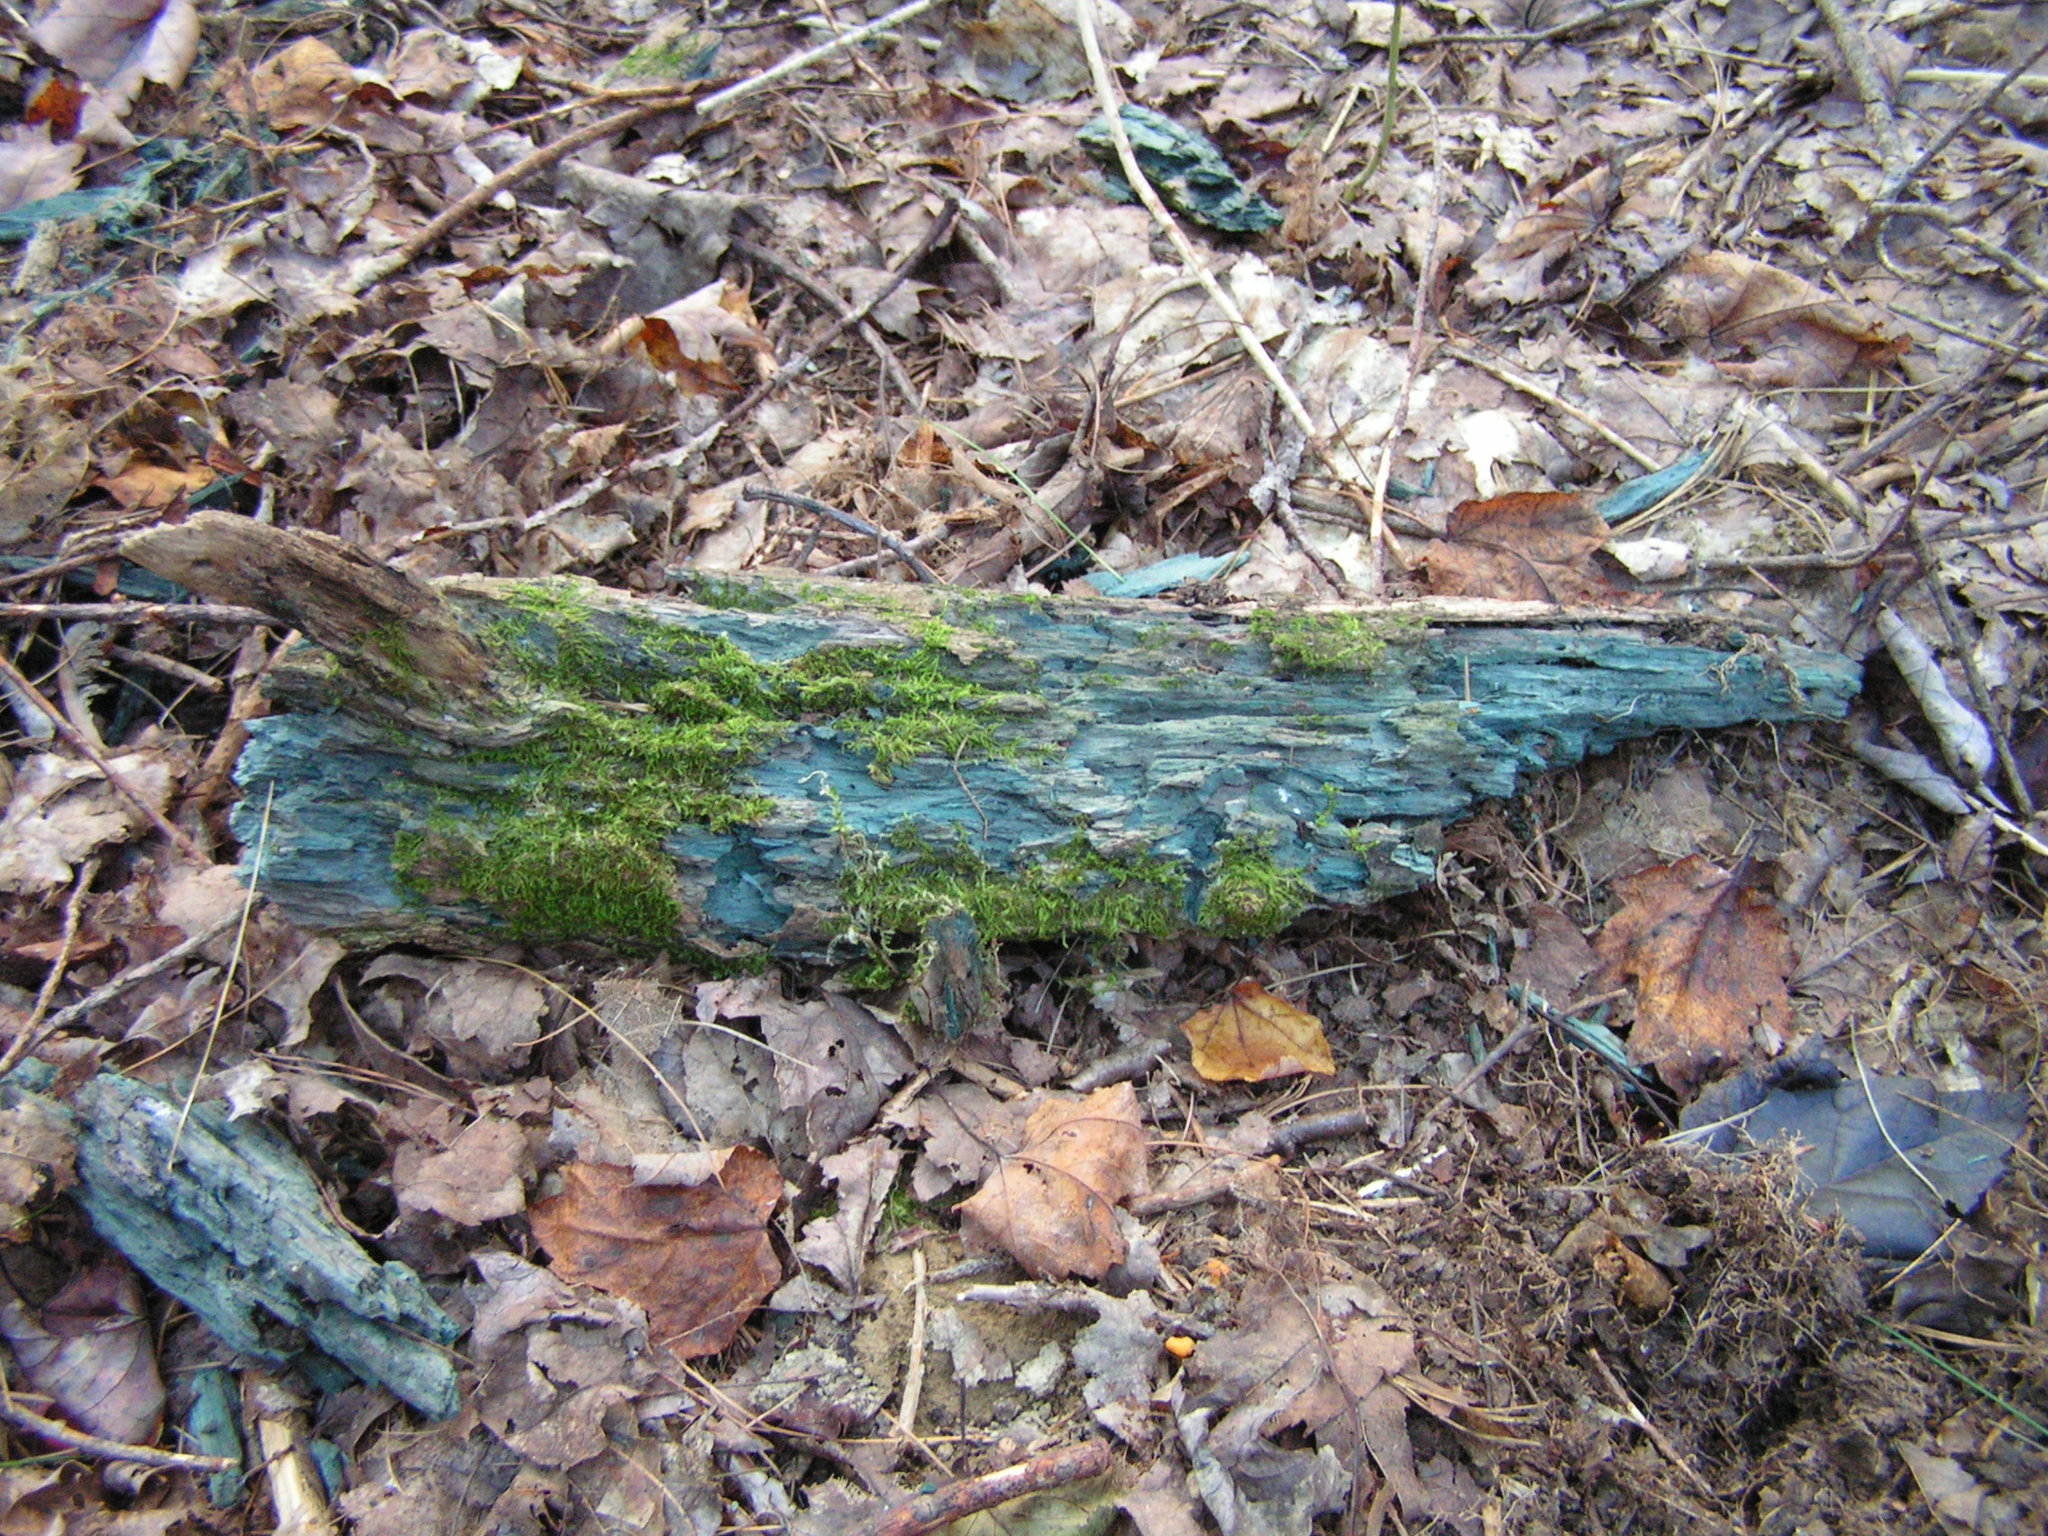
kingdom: Fungi
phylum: Ascomycota
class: Leotiomycetes
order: Helotiales
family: Chlorociboriaceae
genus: Chlorociboria
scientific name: Chlorociboria
